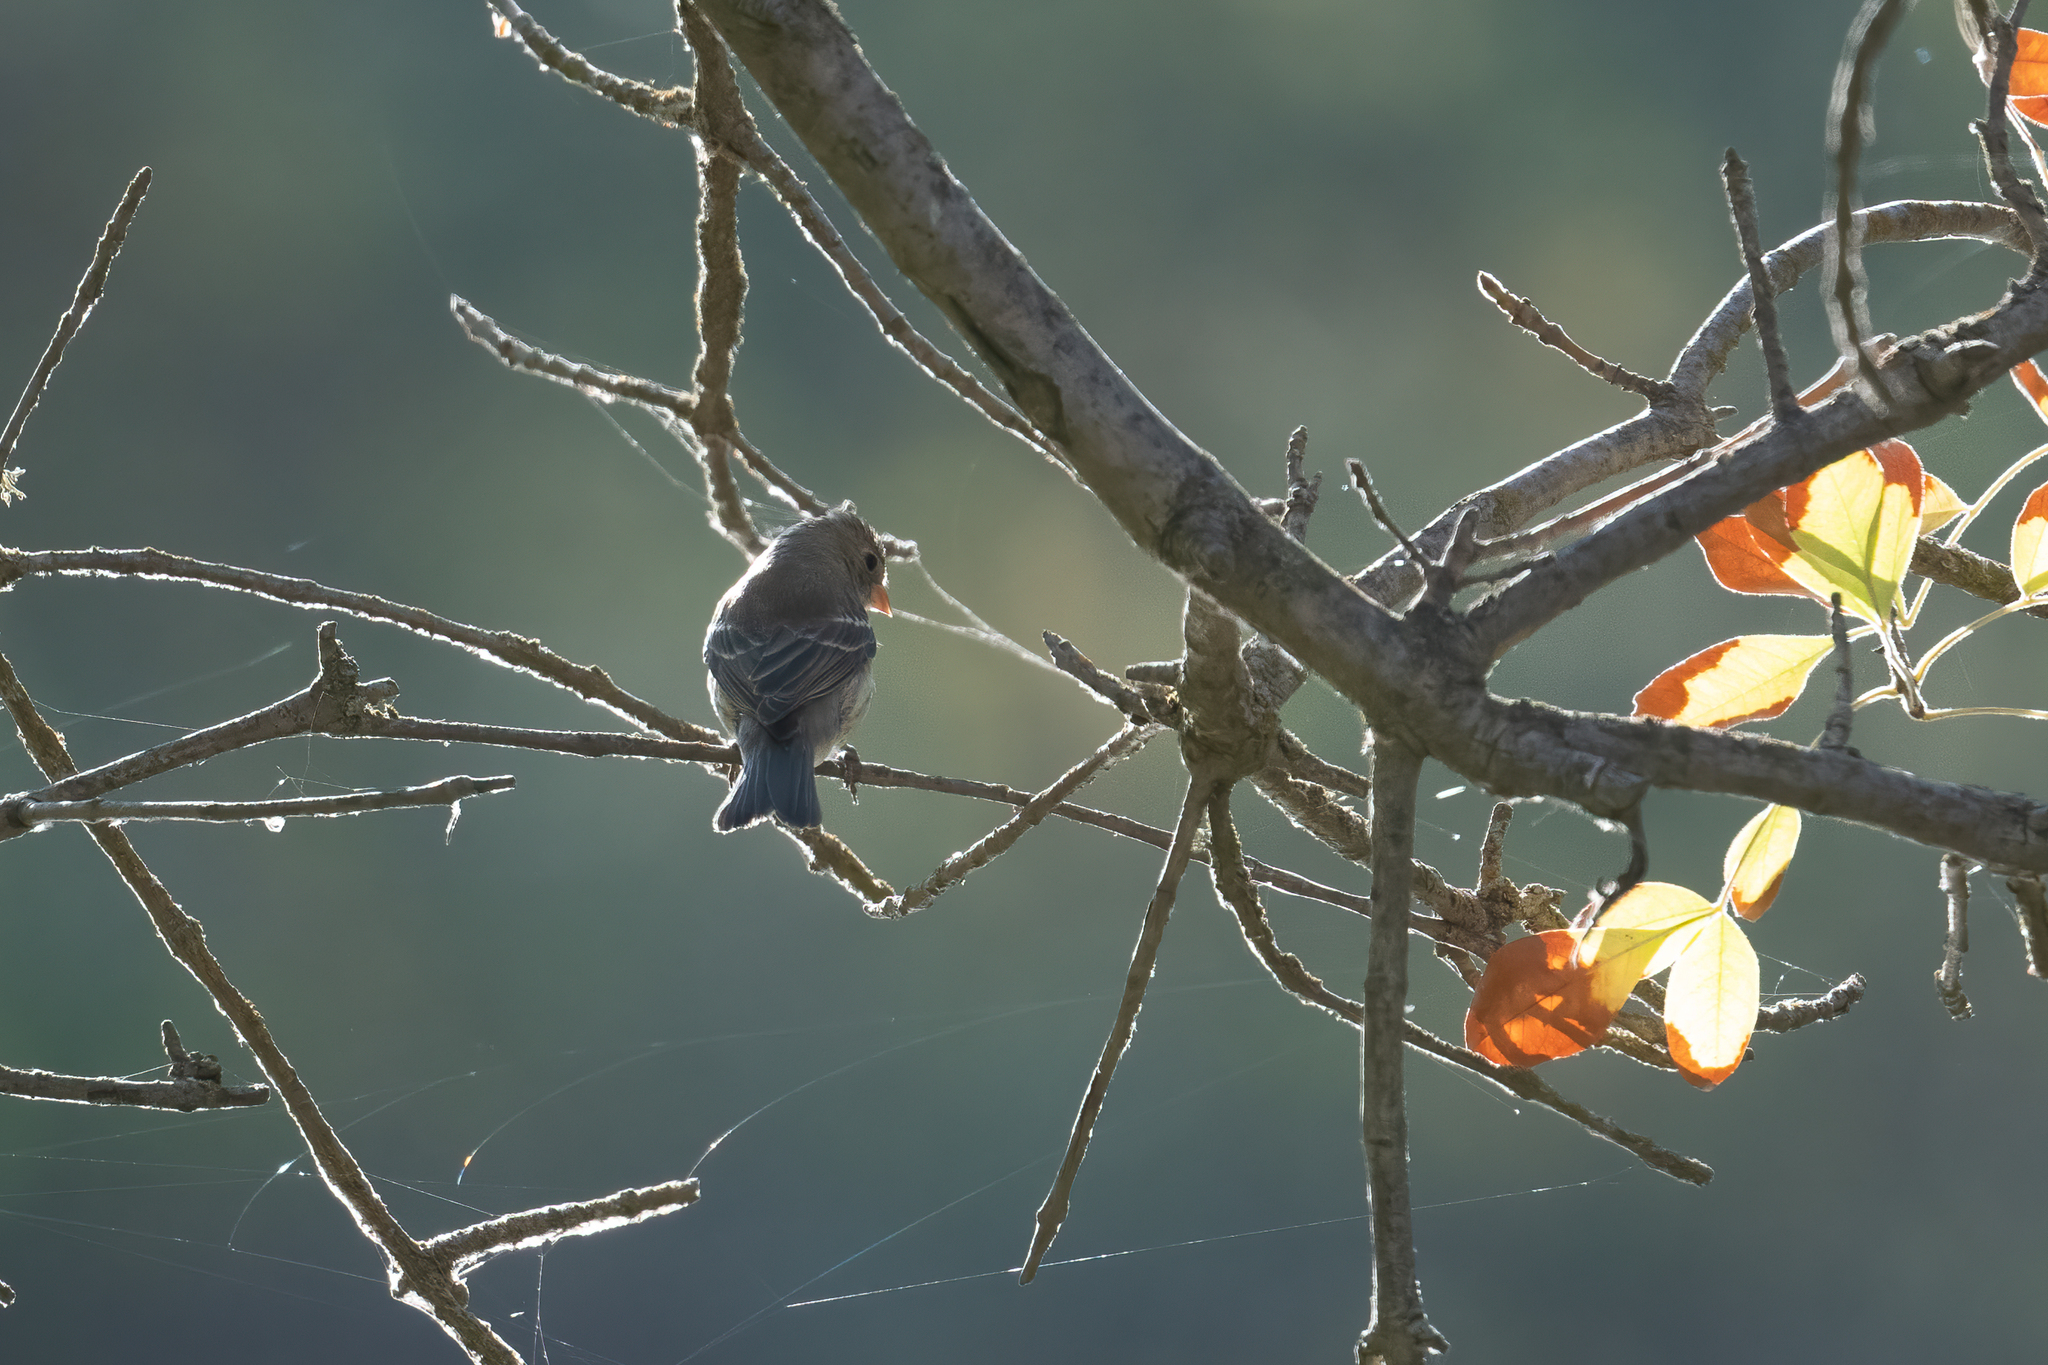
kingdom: Animalia
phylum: Chordata
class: Aves
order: Passeriformes
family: Cardinalidae
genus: Passerina
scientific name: Passerina amoena
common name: Lazuli bunting
